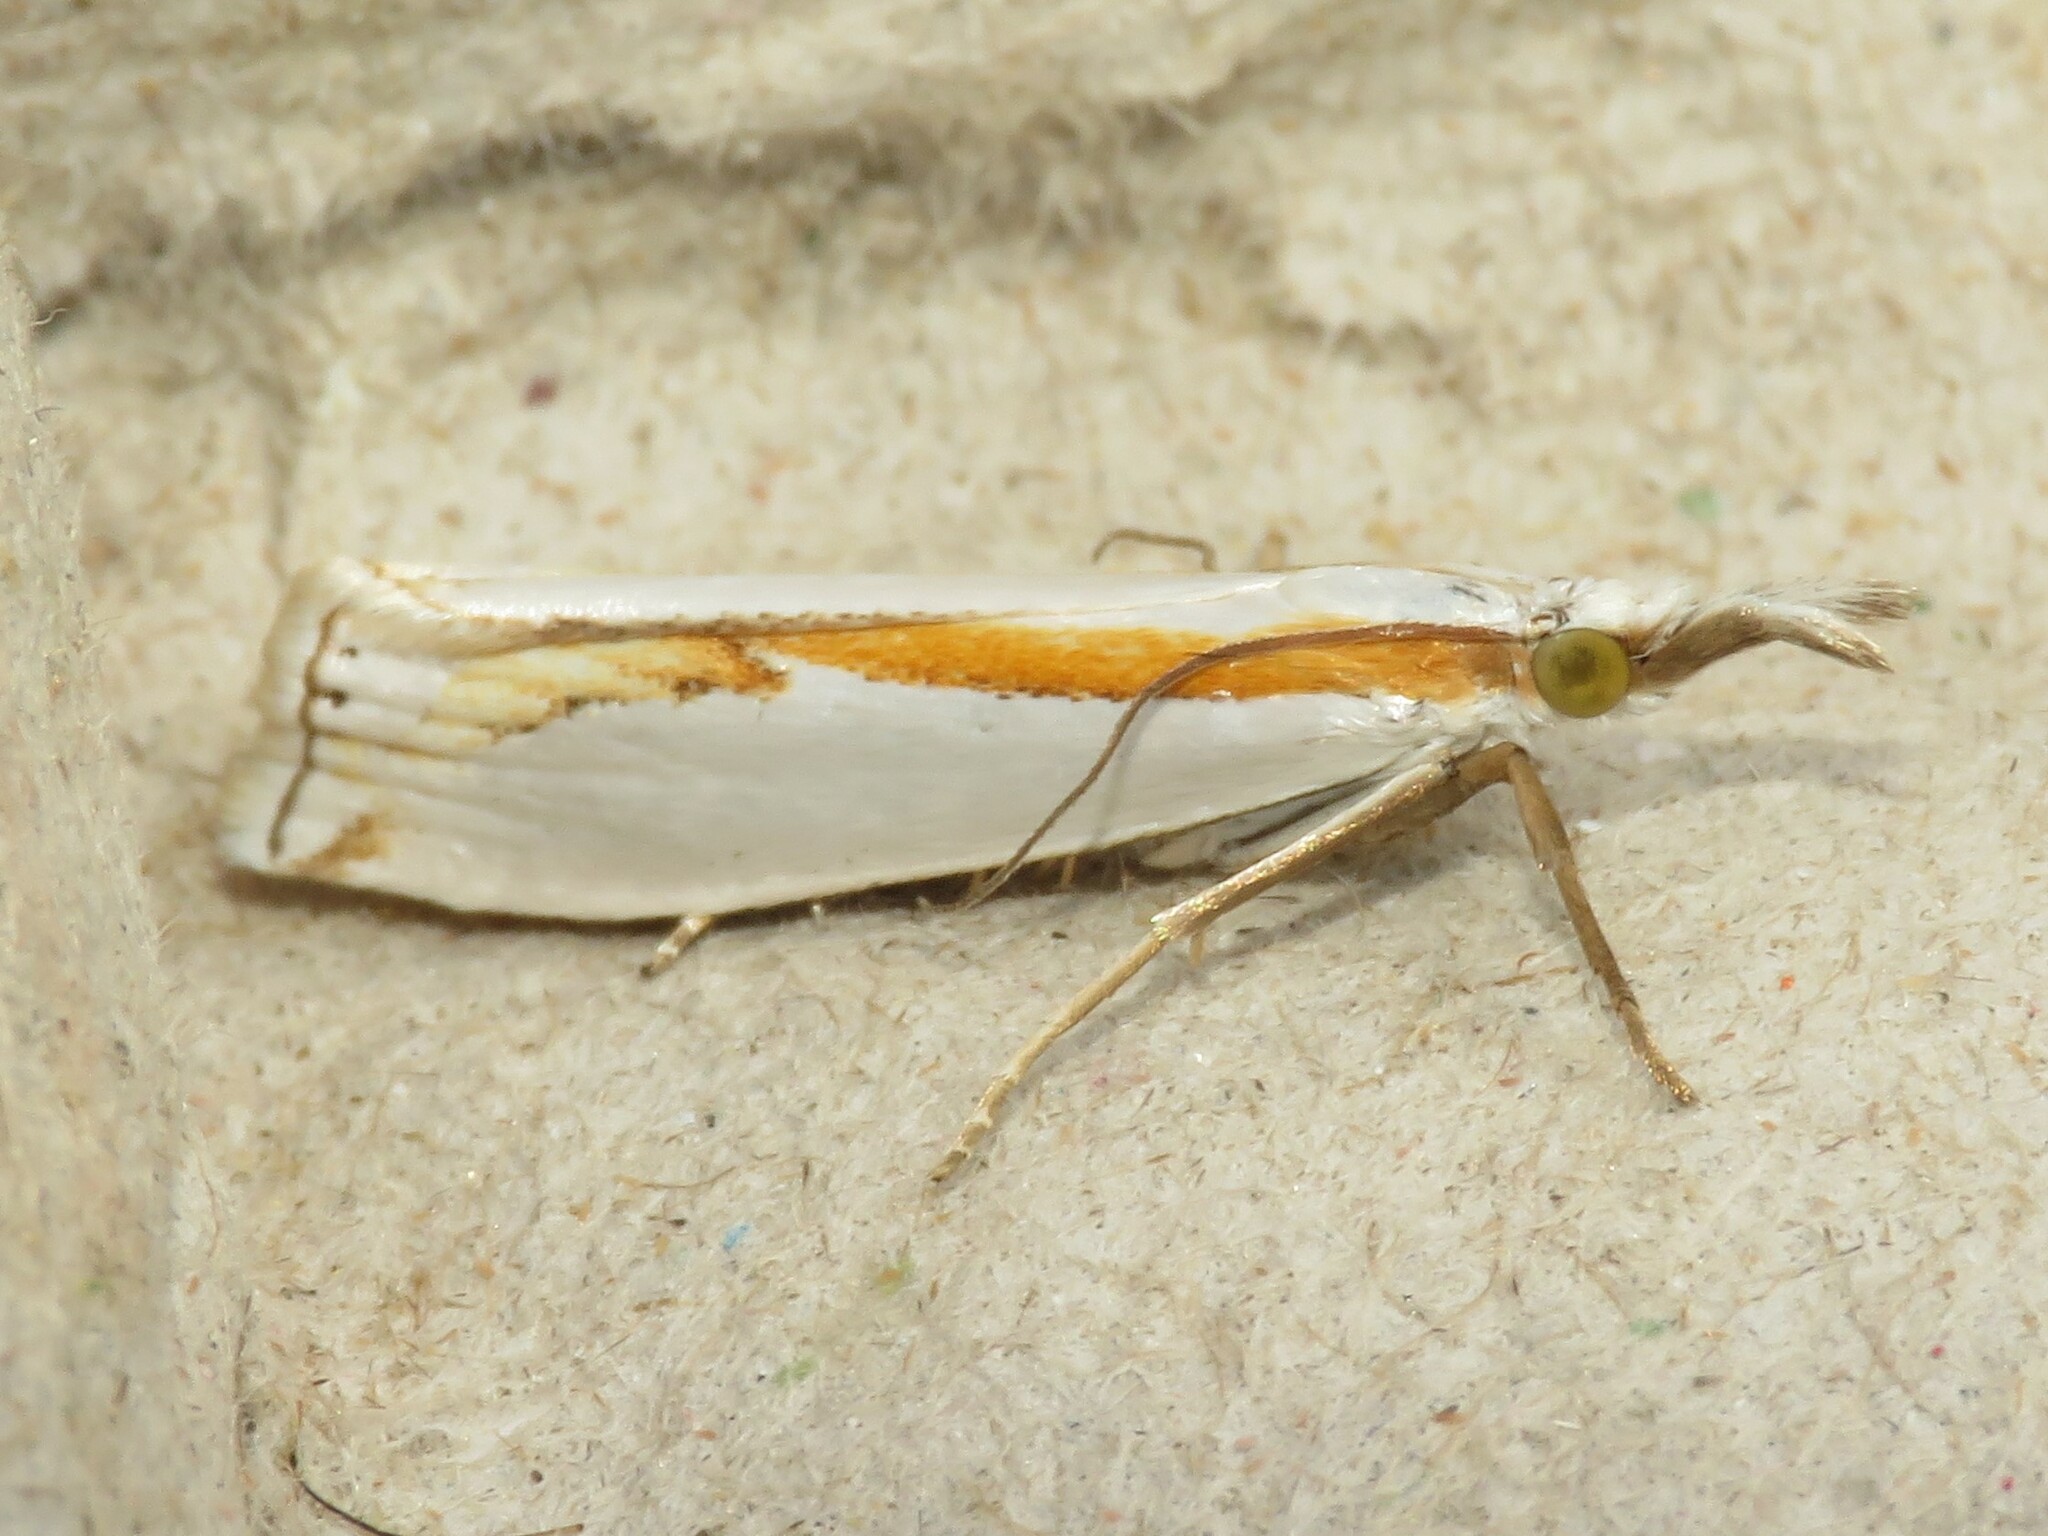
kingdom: Animalia
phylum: Arthropoda
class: Insecta
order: Lepidoptera
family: Crambidae
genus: Crambus
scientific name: Crambus girardellus
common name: Girard's grass-veneer
